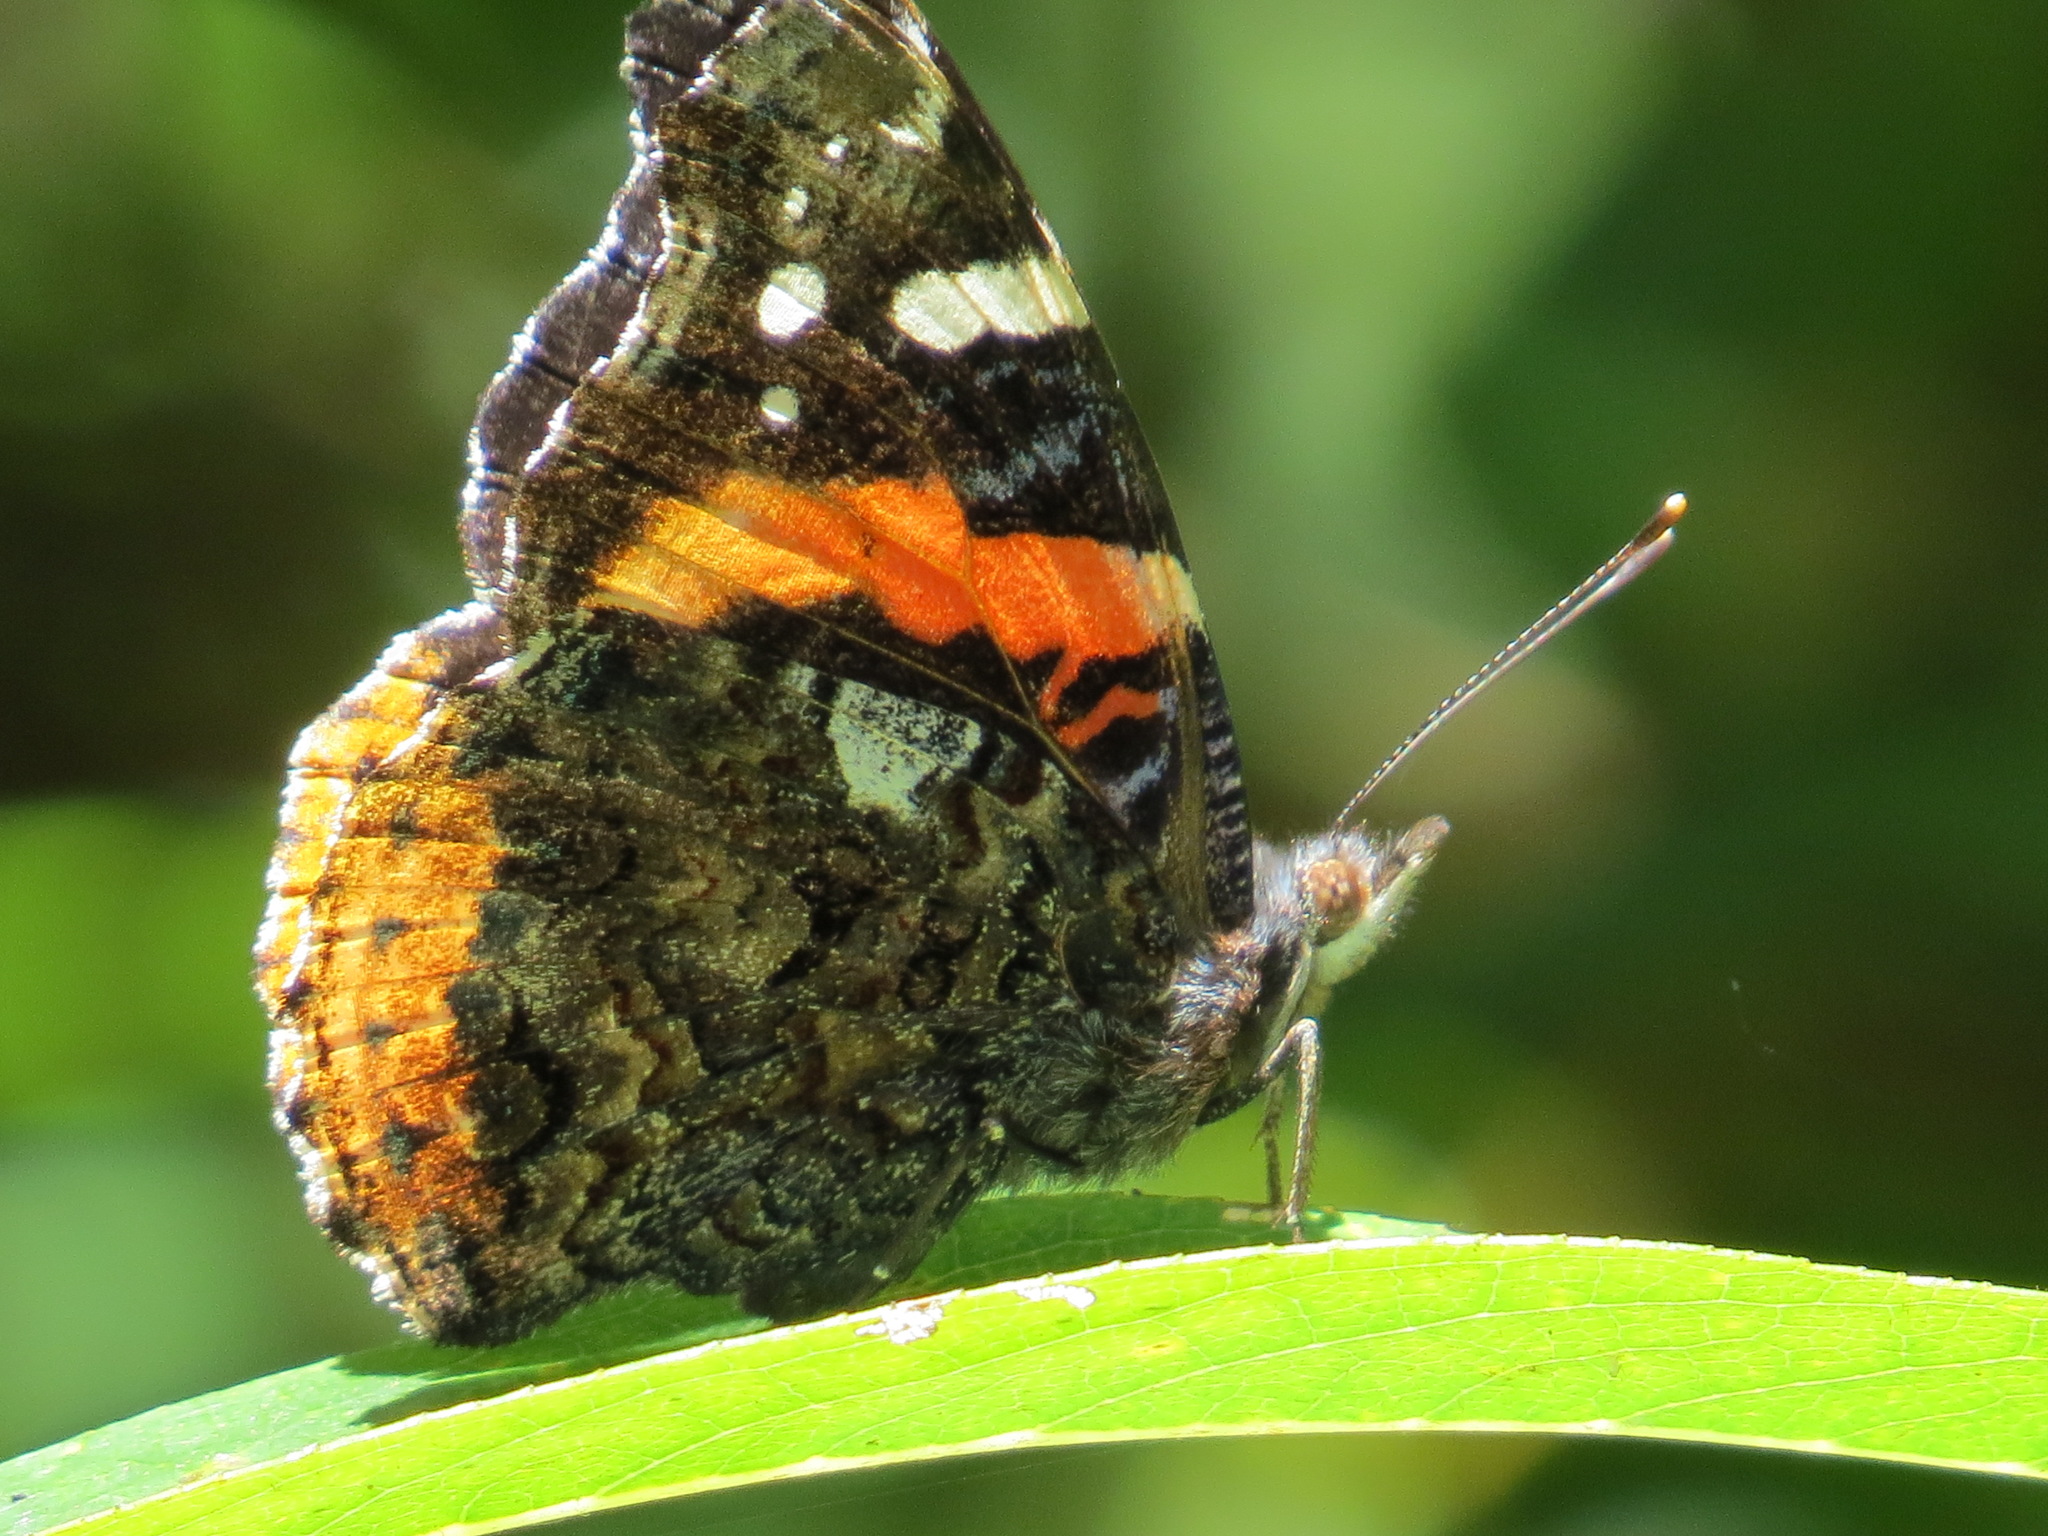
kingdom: Animalia
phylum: Arthropoda
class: Insecta
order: Lepidoptera
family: Nymphalidae
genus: Vanessa
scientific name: Vanessa atalanta
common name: Red admiral
